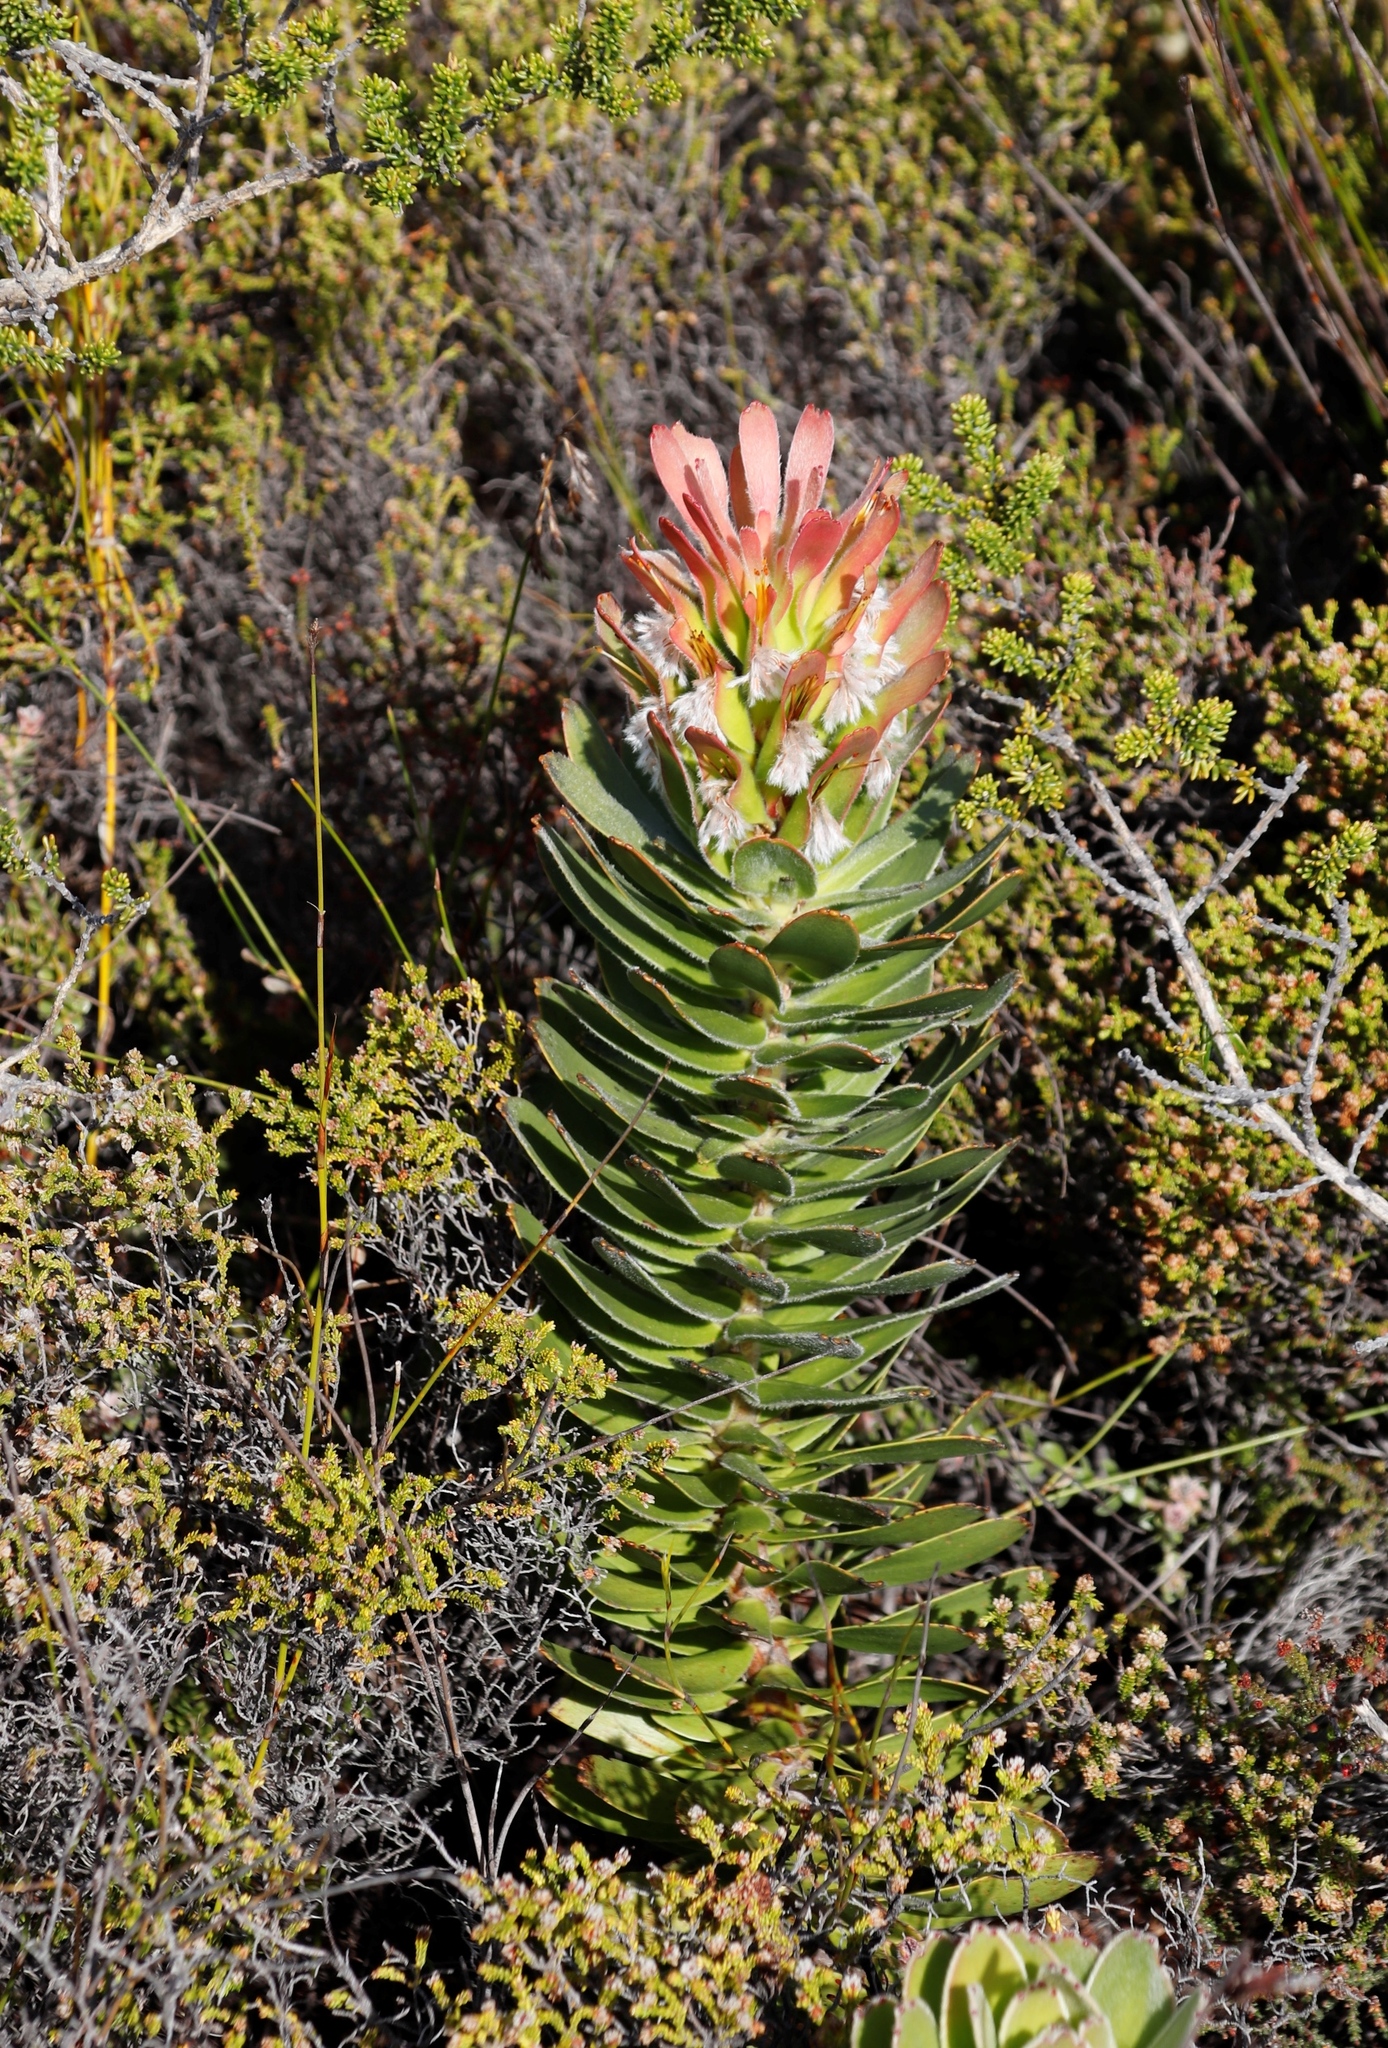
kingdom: Plantae
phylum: Tracheophyta
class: Magnoliopsida
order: Proteales
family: Proteaceae
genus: Mimetes
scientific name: Mimetes fimbriifolius
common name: Fringed bottlebrush
